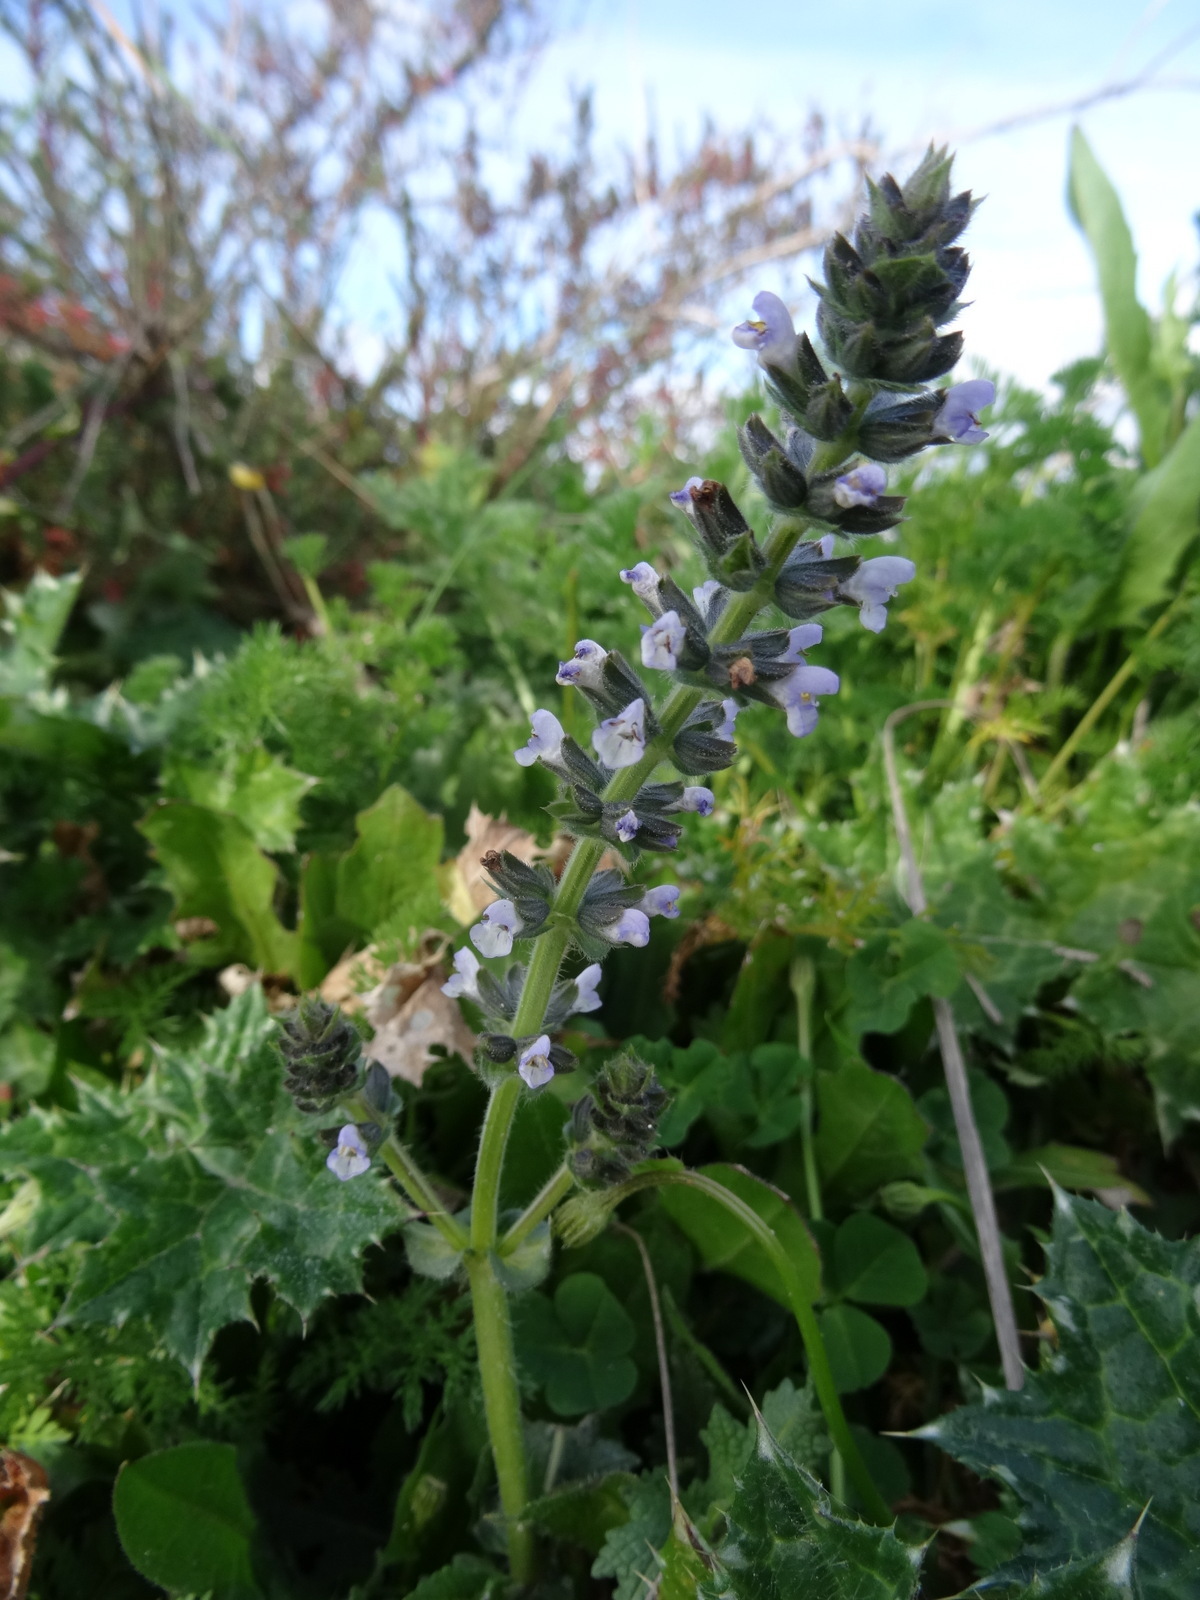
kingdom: Plantae
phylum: Tracheophyta
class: Magnoliopsida
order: Lamiales
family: Lamiaceae
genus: Salvia
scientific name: Salvia verbenaca
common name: Wild clary
